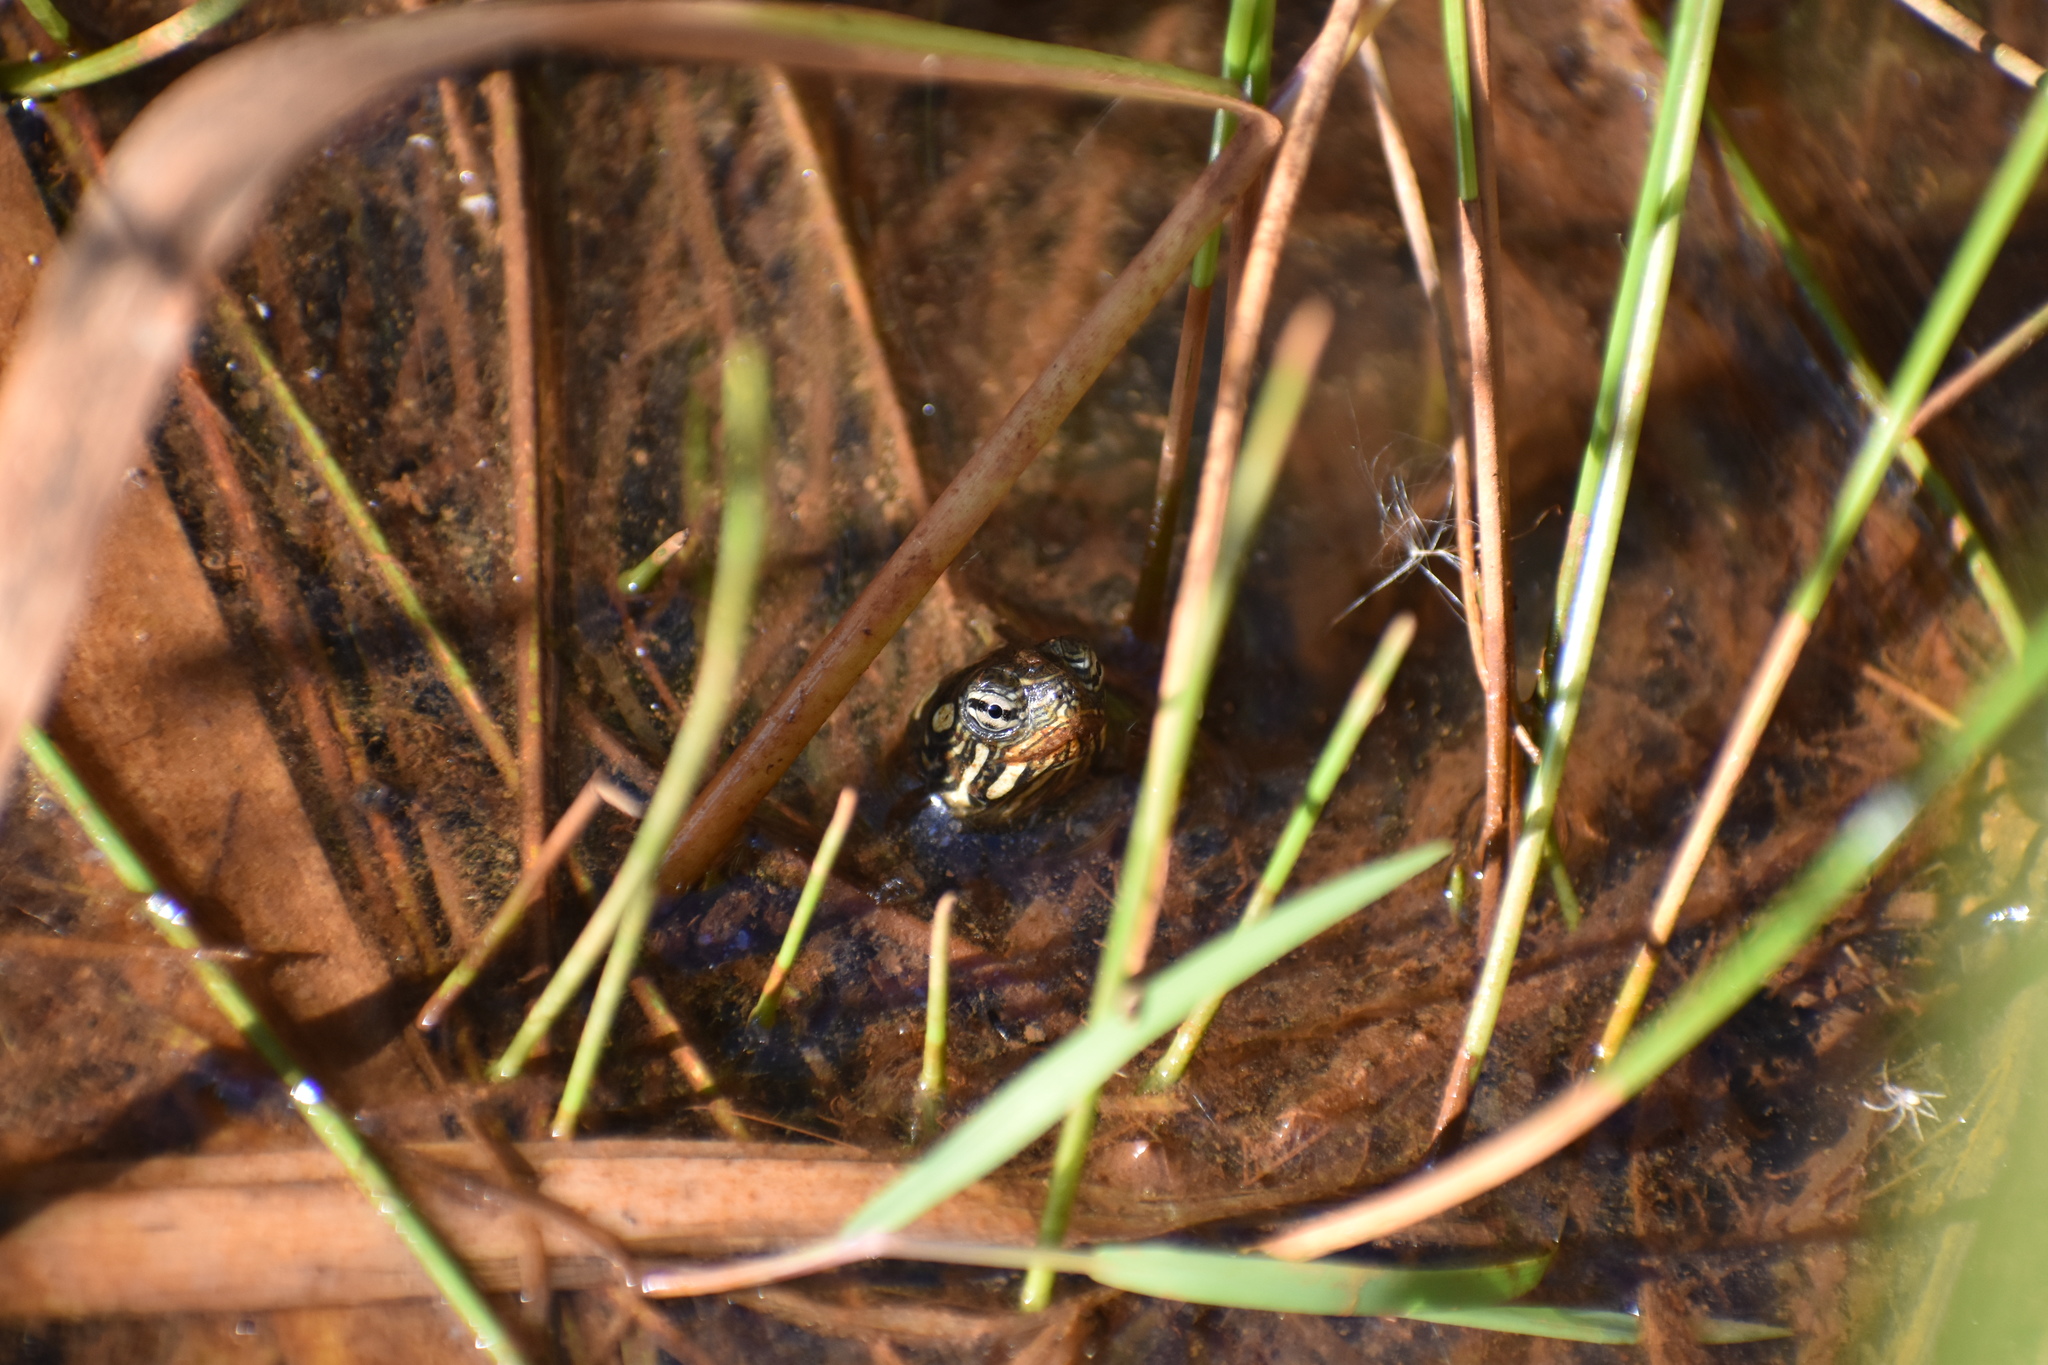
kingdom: Animalia
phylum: Chordata
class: Testudines
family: Emydidae
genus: Chrysemys
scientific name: Chrysemys picta
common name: Painted turtle
